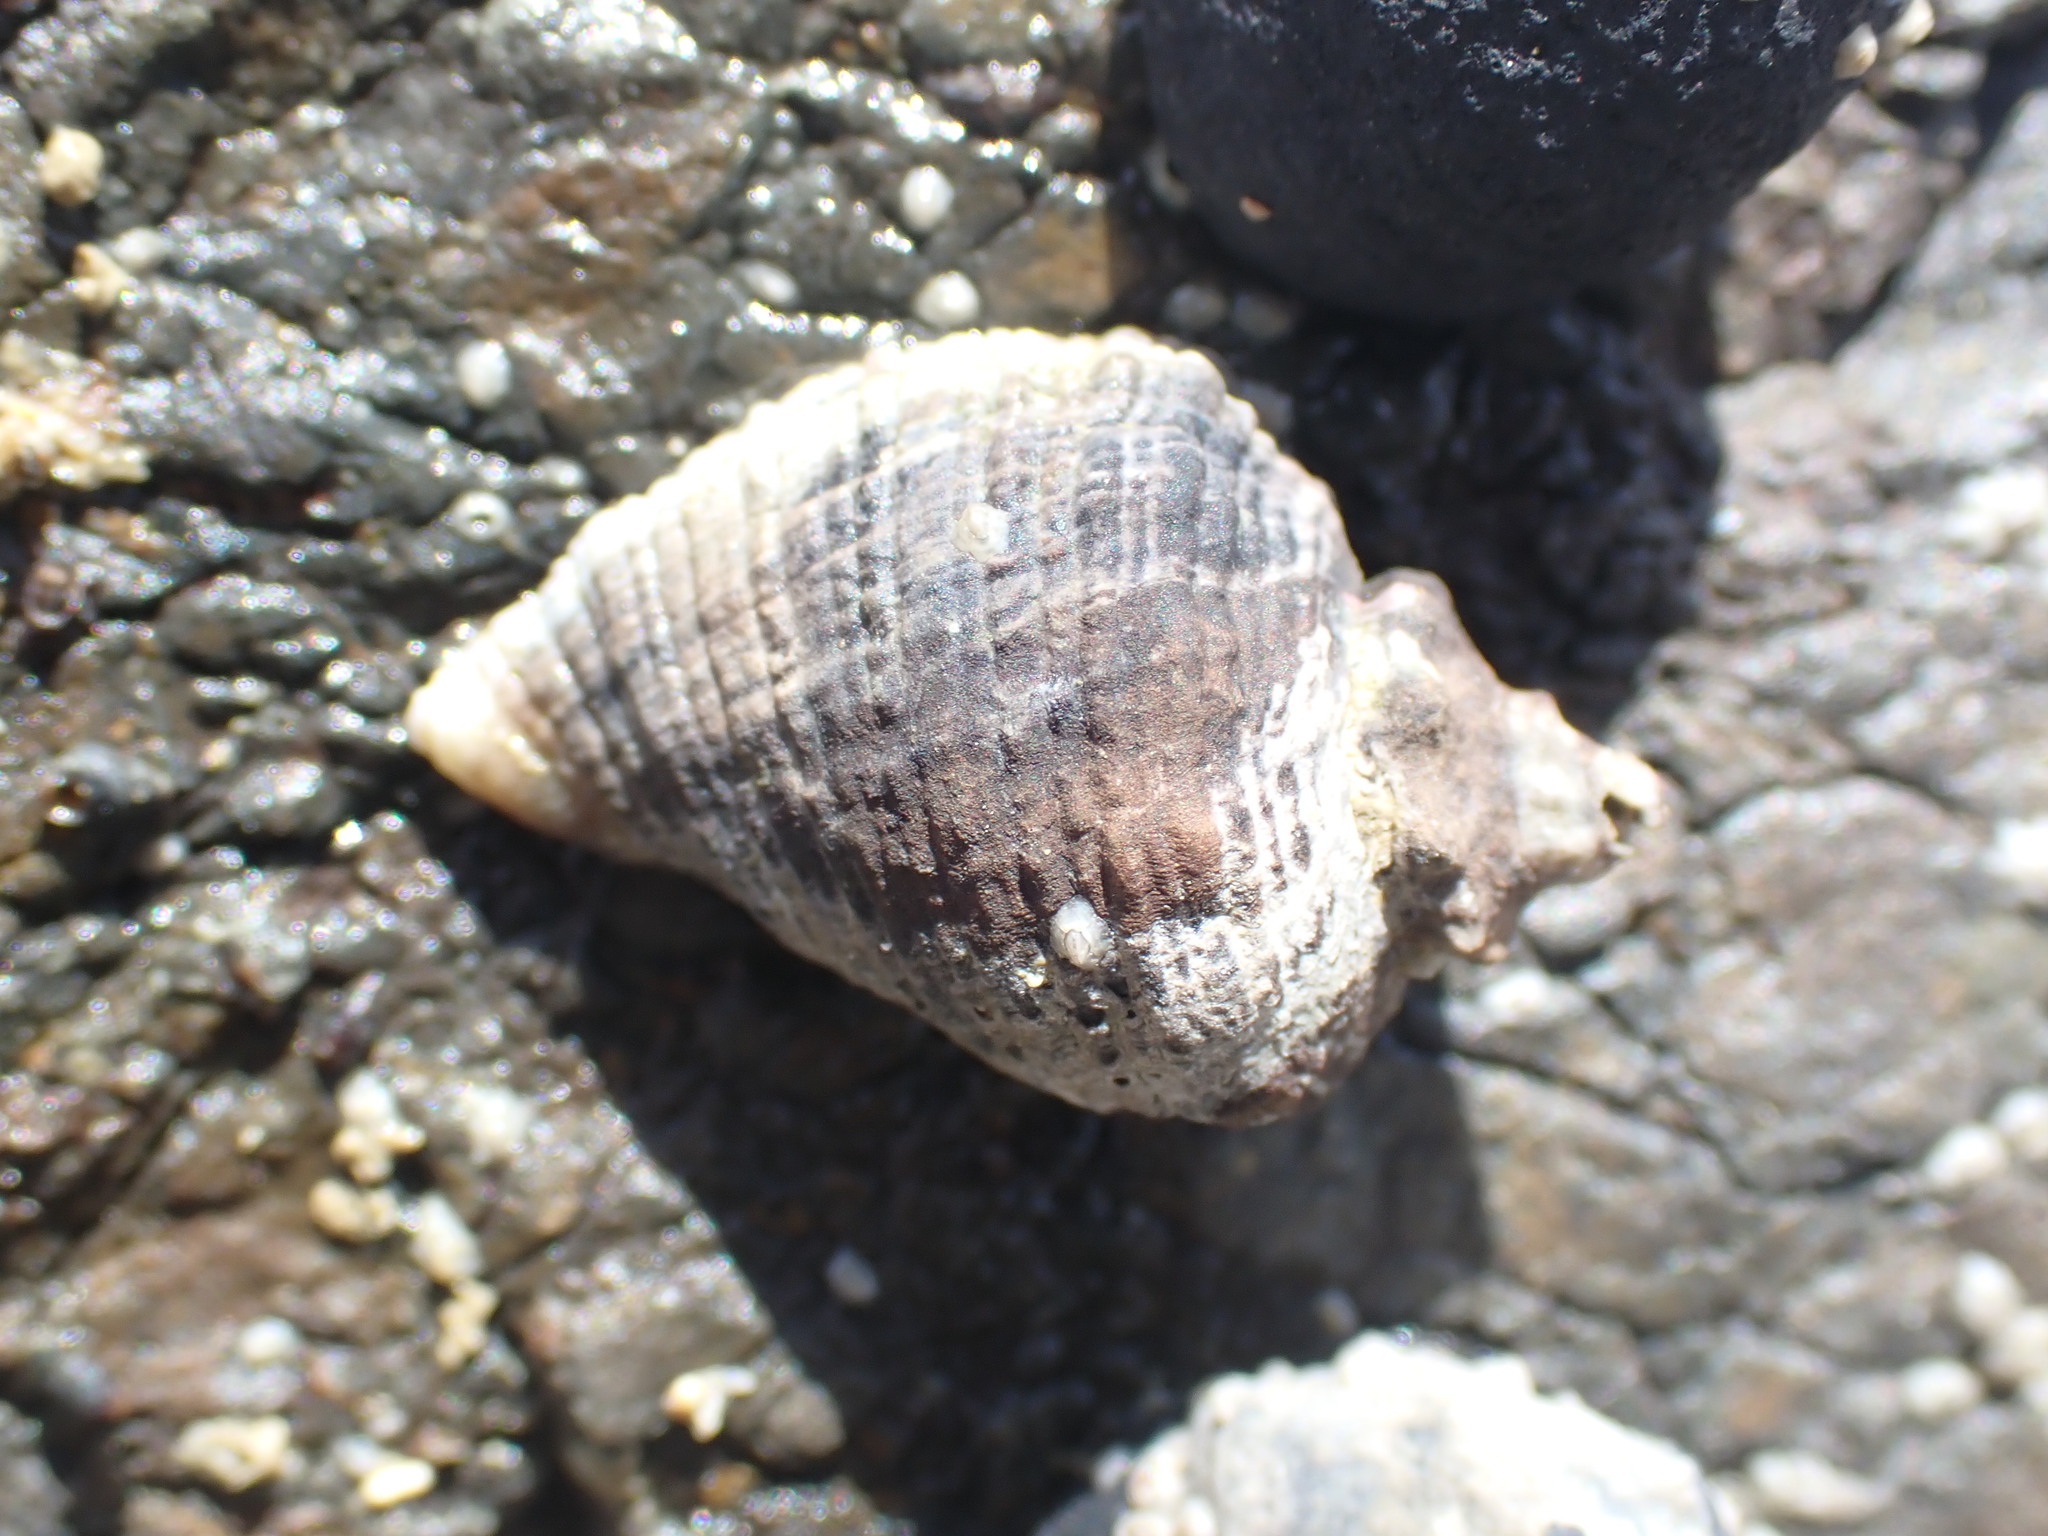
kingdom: Animalia
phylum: Mollusca
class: Gastropoda
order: Neogastropoda
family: Muricidae
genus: Haustrum
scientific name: Haustrum haustorium
